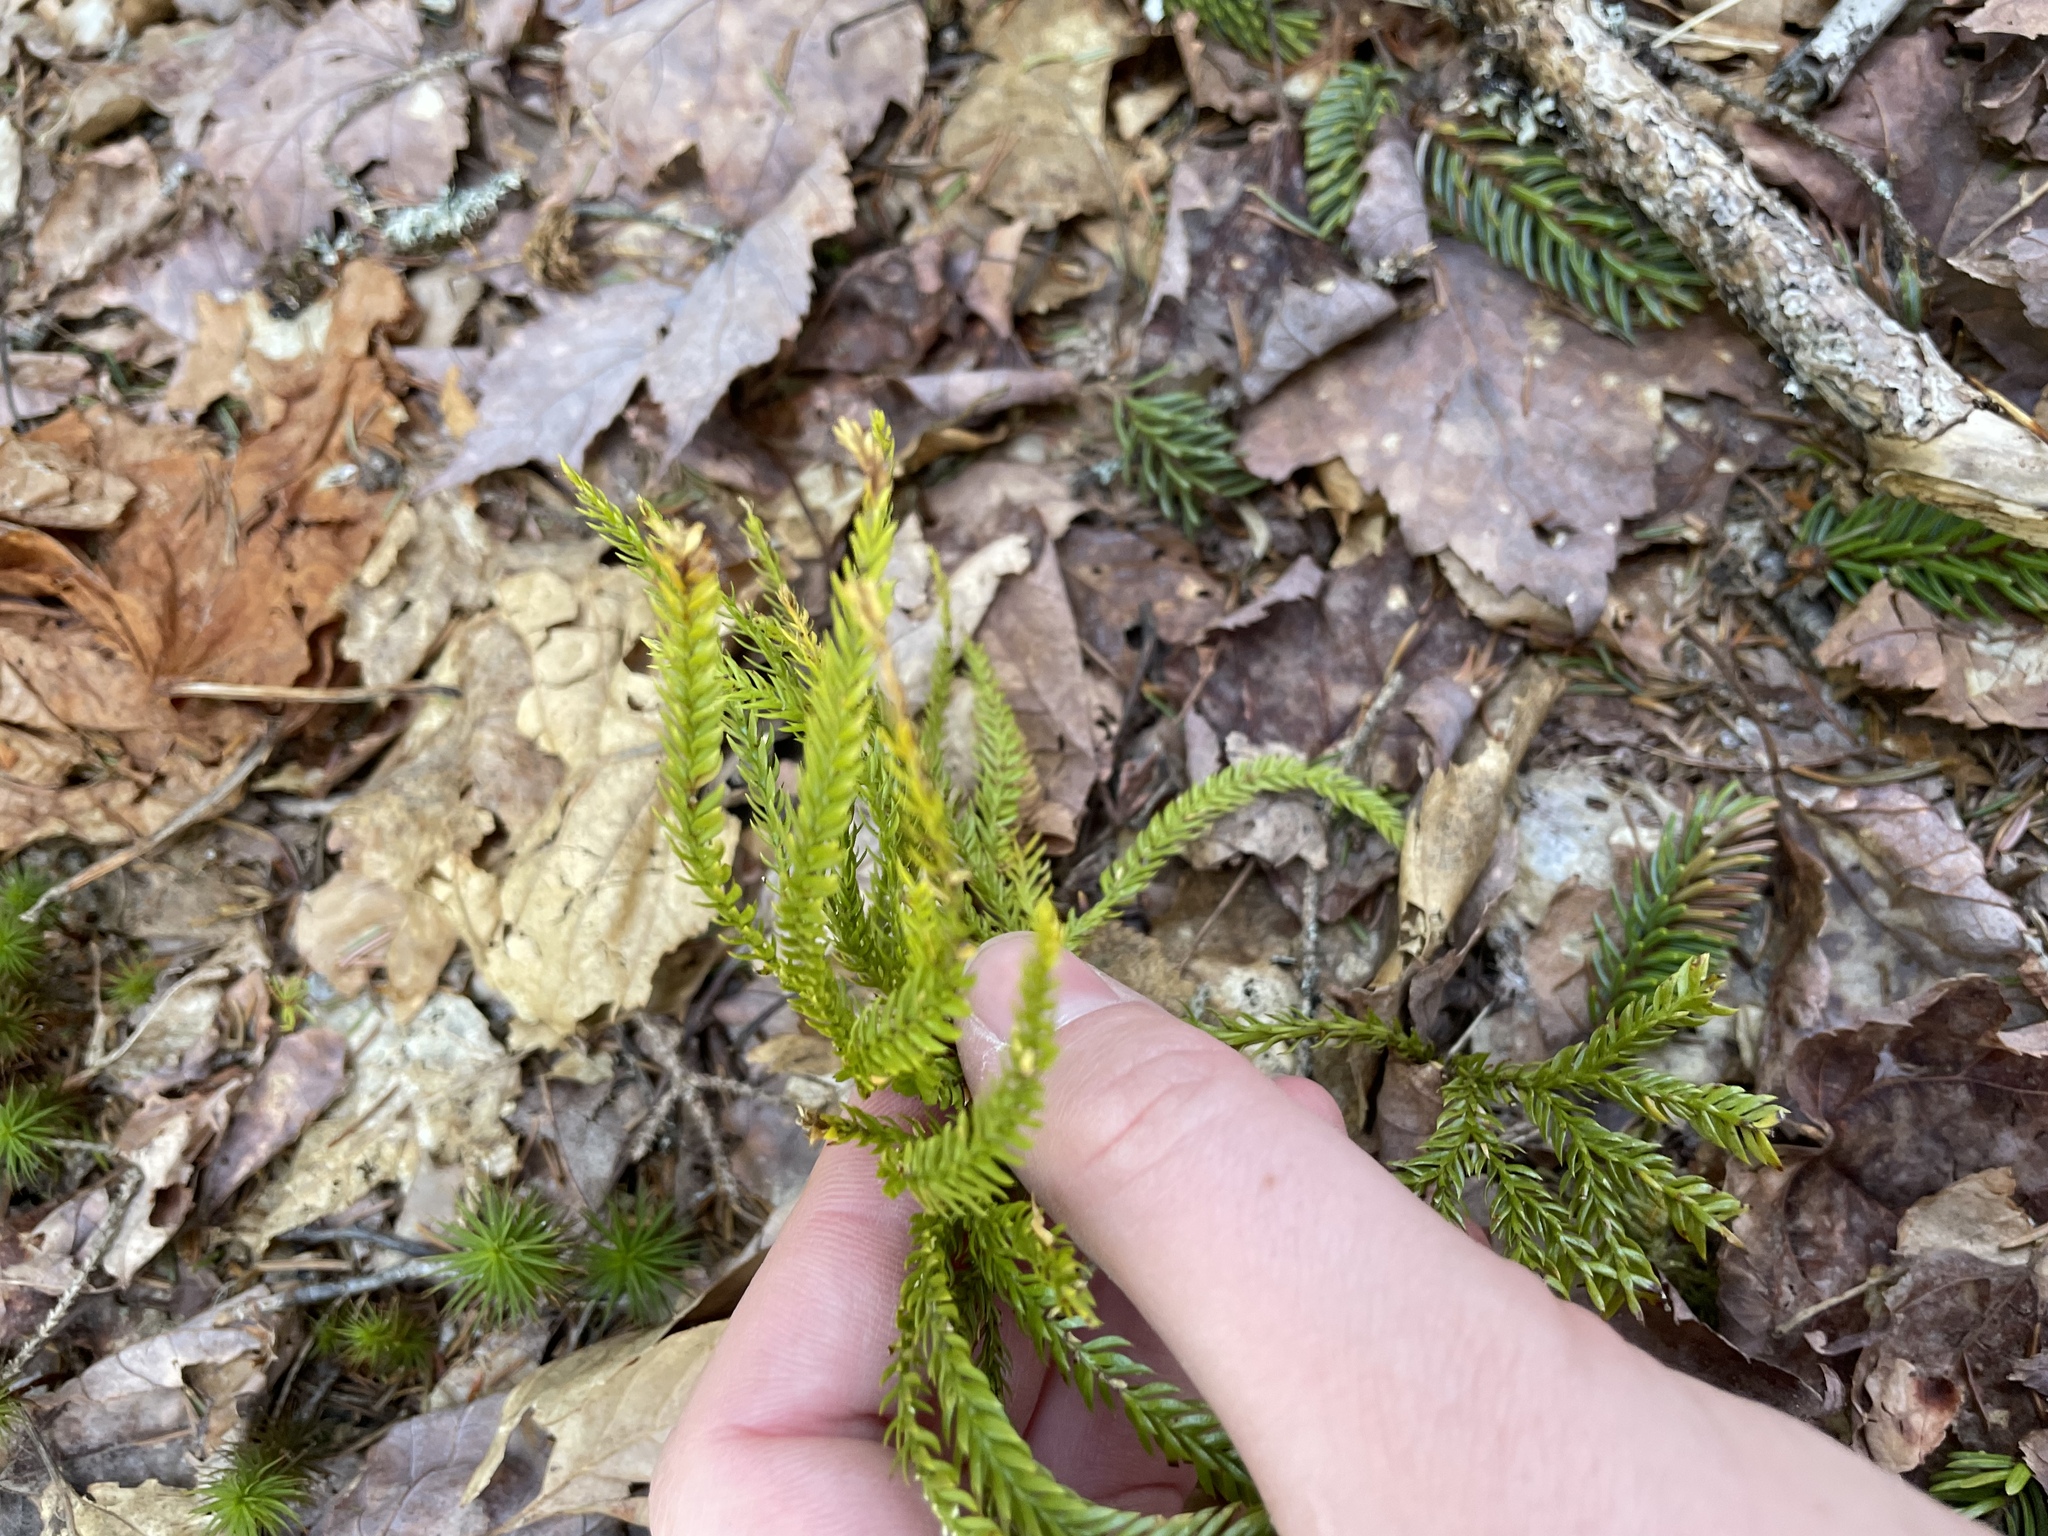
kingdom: Plantae
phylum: Tracheophyta
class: Lycopodiopsida
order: Lycopodiales
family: Lycopodiaceae
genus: Dendrolycopodium
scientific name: Dendrolycopodium obscurum
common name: Common ground-pine
